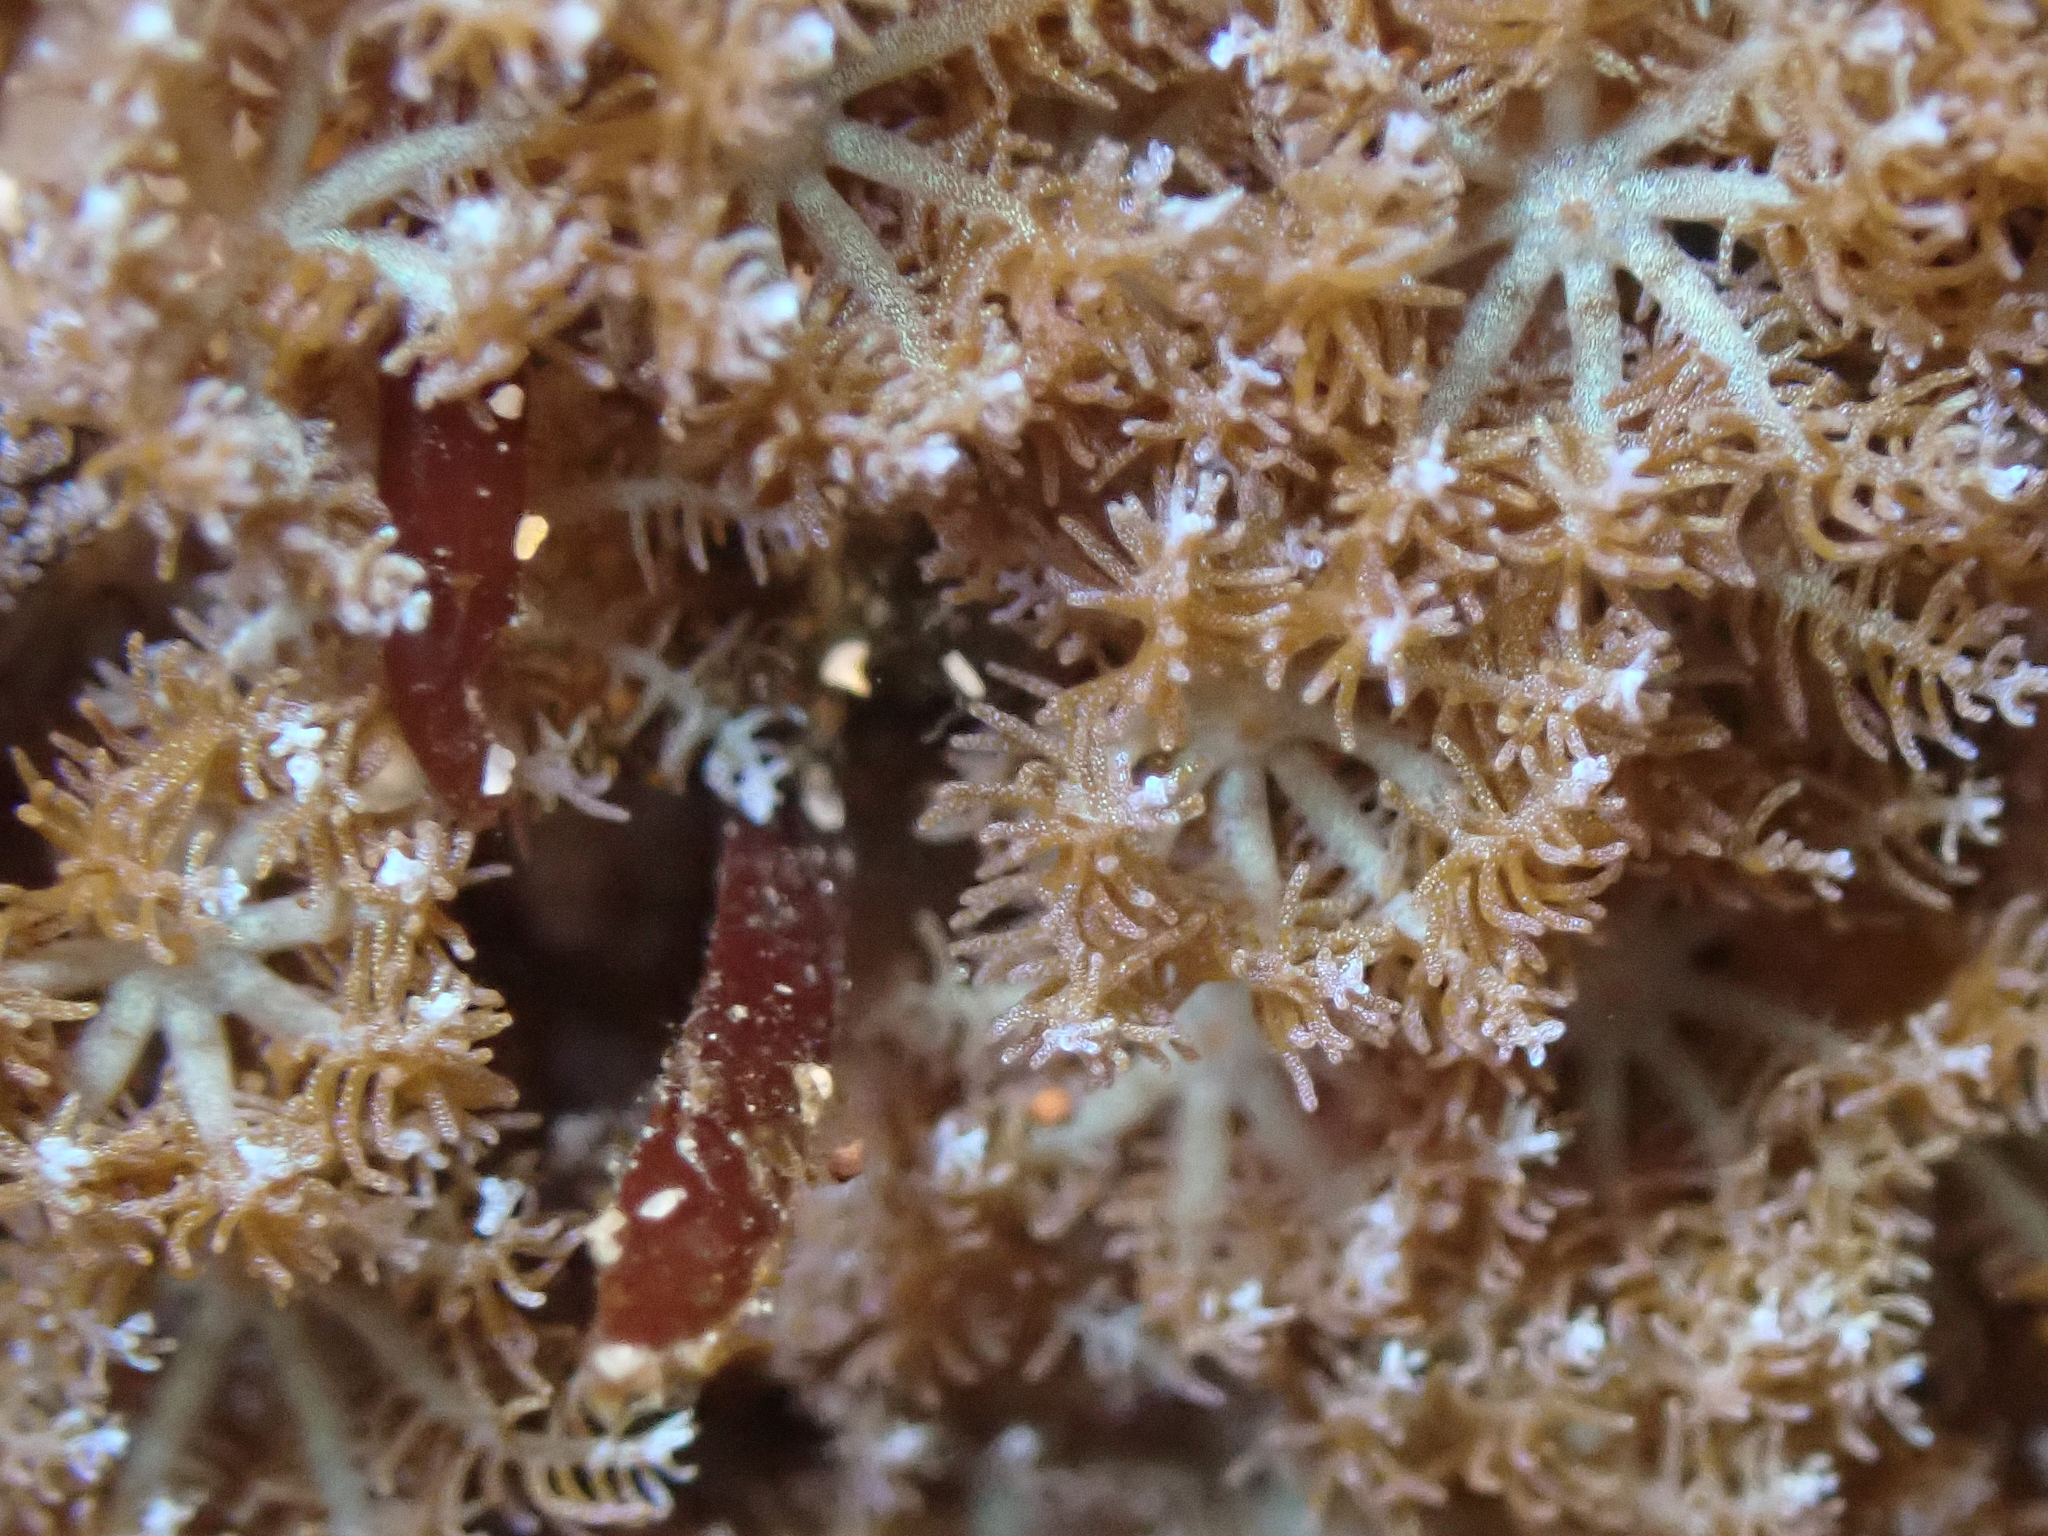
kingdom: Animalia
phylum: Cnidaria
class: Anthozoa
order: Malacalcyonacea
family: Xeniidae
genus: Sarcothelia
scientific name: Sarcothelia edmondsoni
